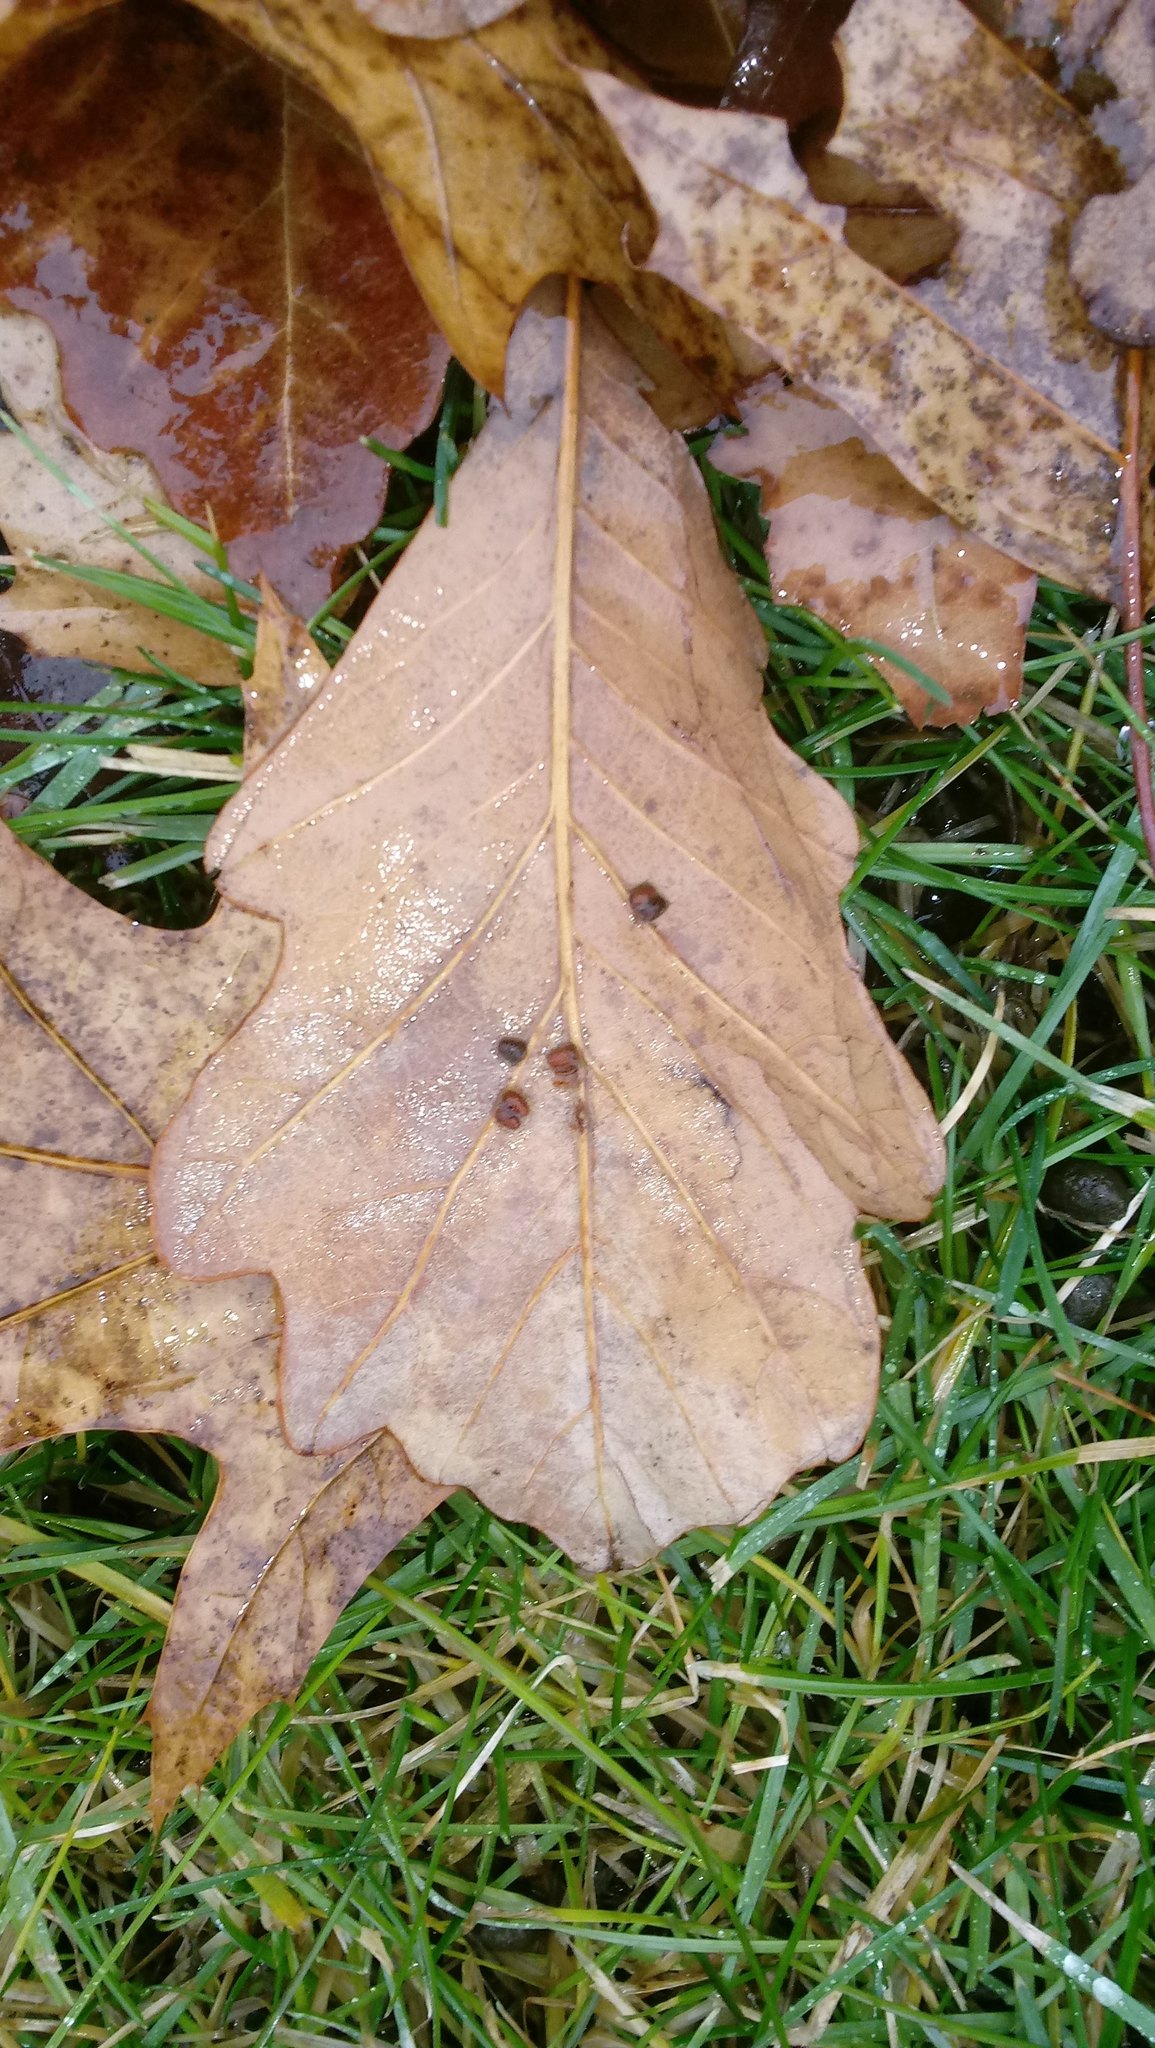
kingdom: Animalia
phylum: Arthropoda
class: Insecta
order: Hymenoptera
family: Cynipidae
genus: Andricus
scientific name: Andricus Druon ignotum
